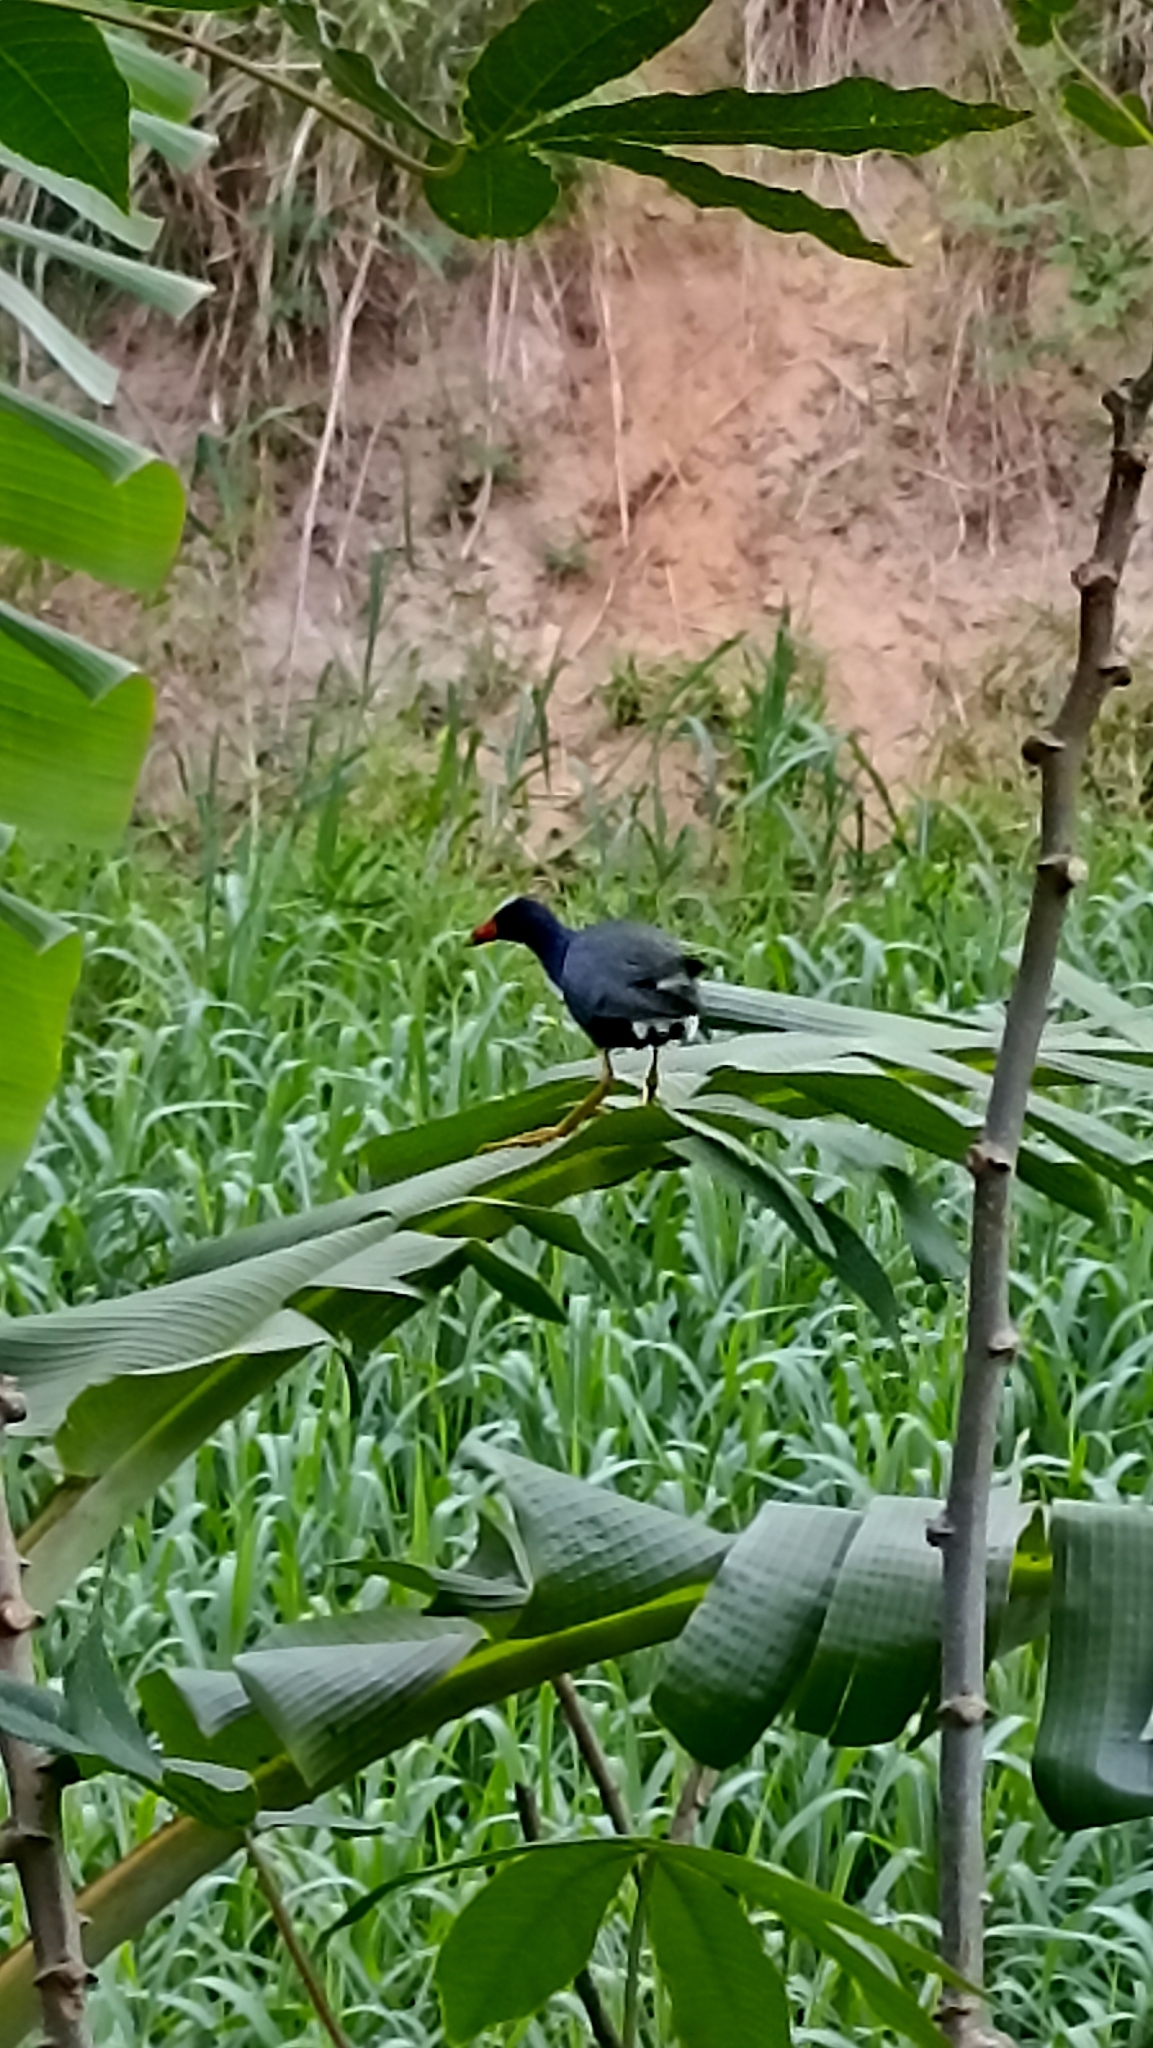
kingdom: Animalia
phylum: Chordata
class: Aves
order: Gruiformes
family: Rallidae
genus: Porphyrio
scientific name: Porphyrio martinica
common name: Purple gallinule
